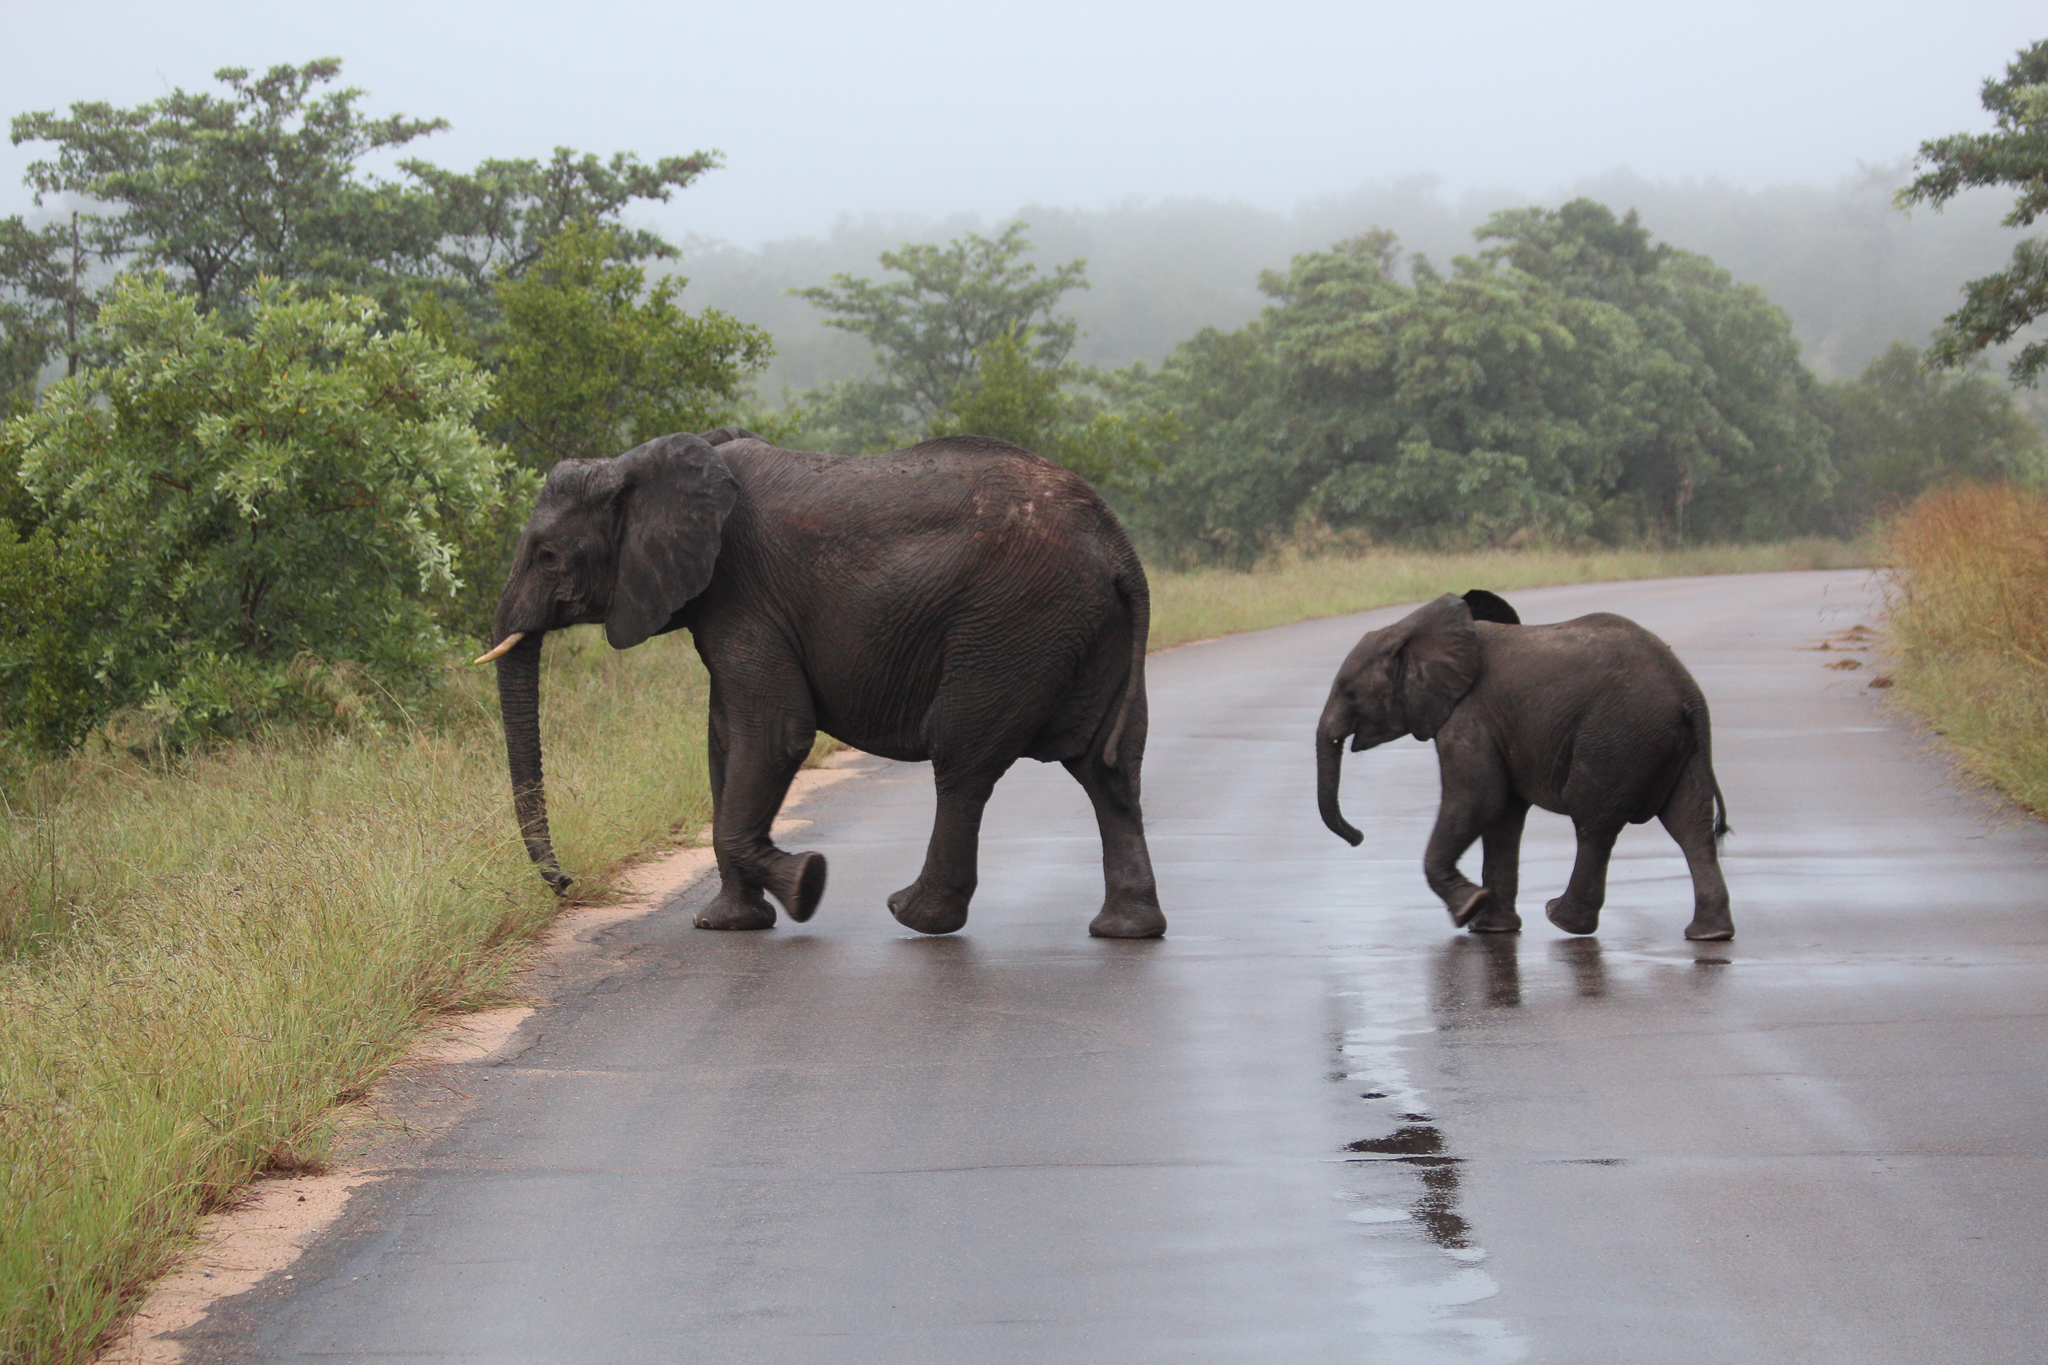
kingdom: Animalia
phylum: Chordata
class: Mammalia
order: Proboscidea
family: Elephantidae
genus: Loxodonta
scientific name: Loxodonta africana
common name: African elephant
